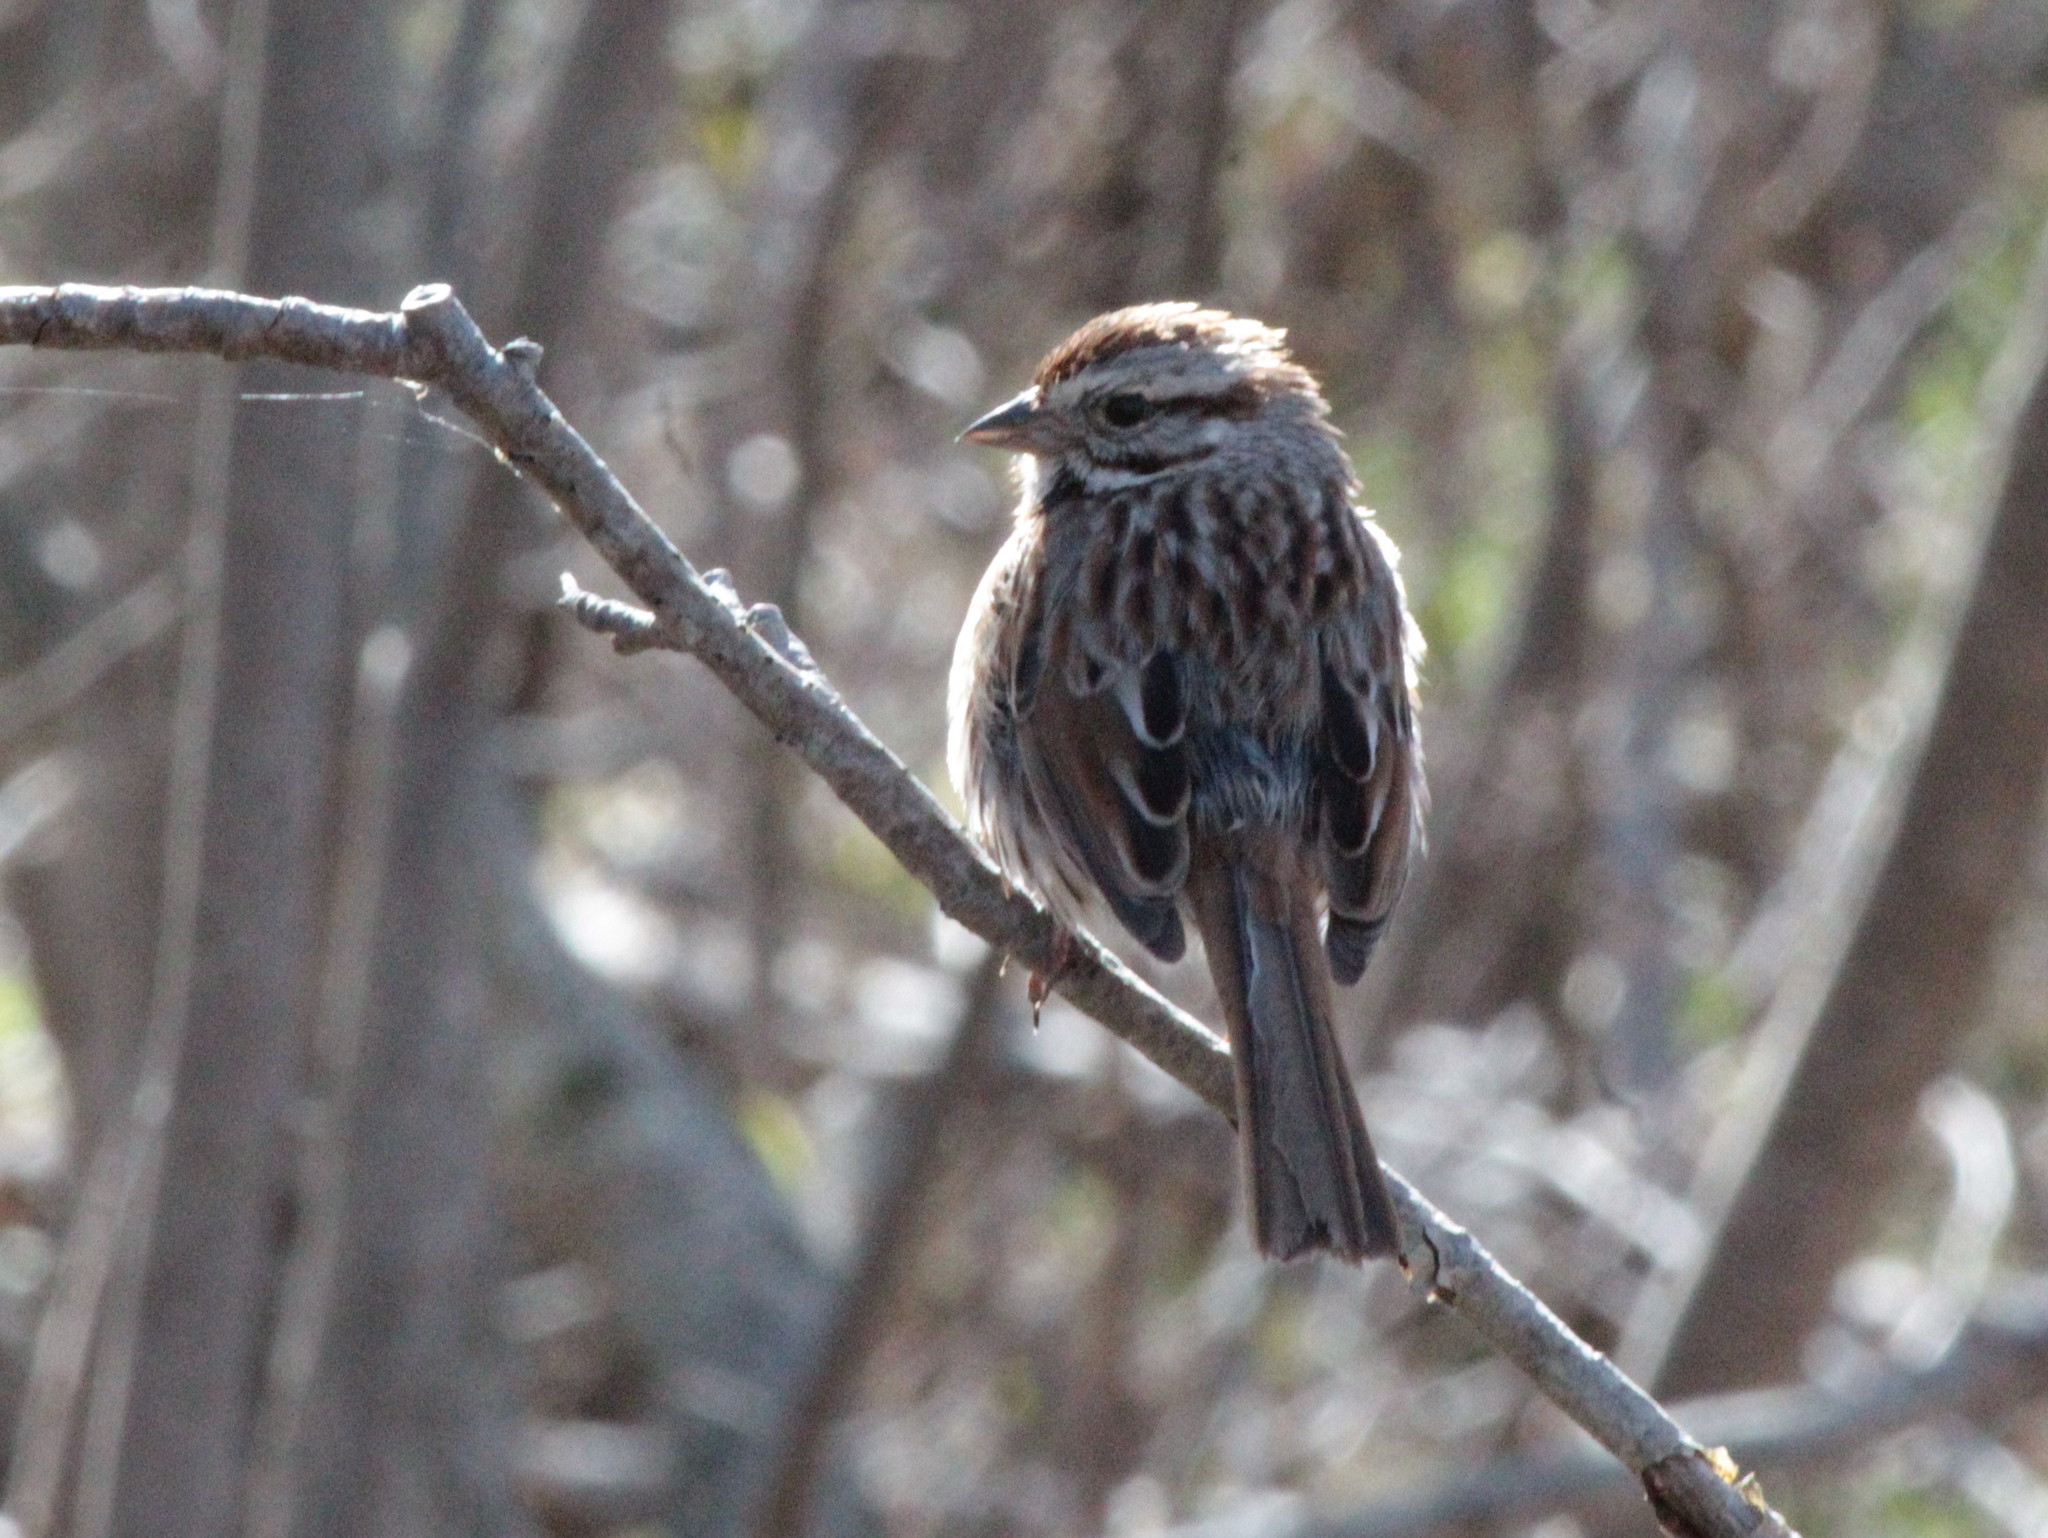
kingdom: Animalia
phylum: Chordata
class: Aves
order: Passeriformes
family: Passerellidae
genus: Melospiza
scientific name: Melospiza melodia
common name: Song sparrow
